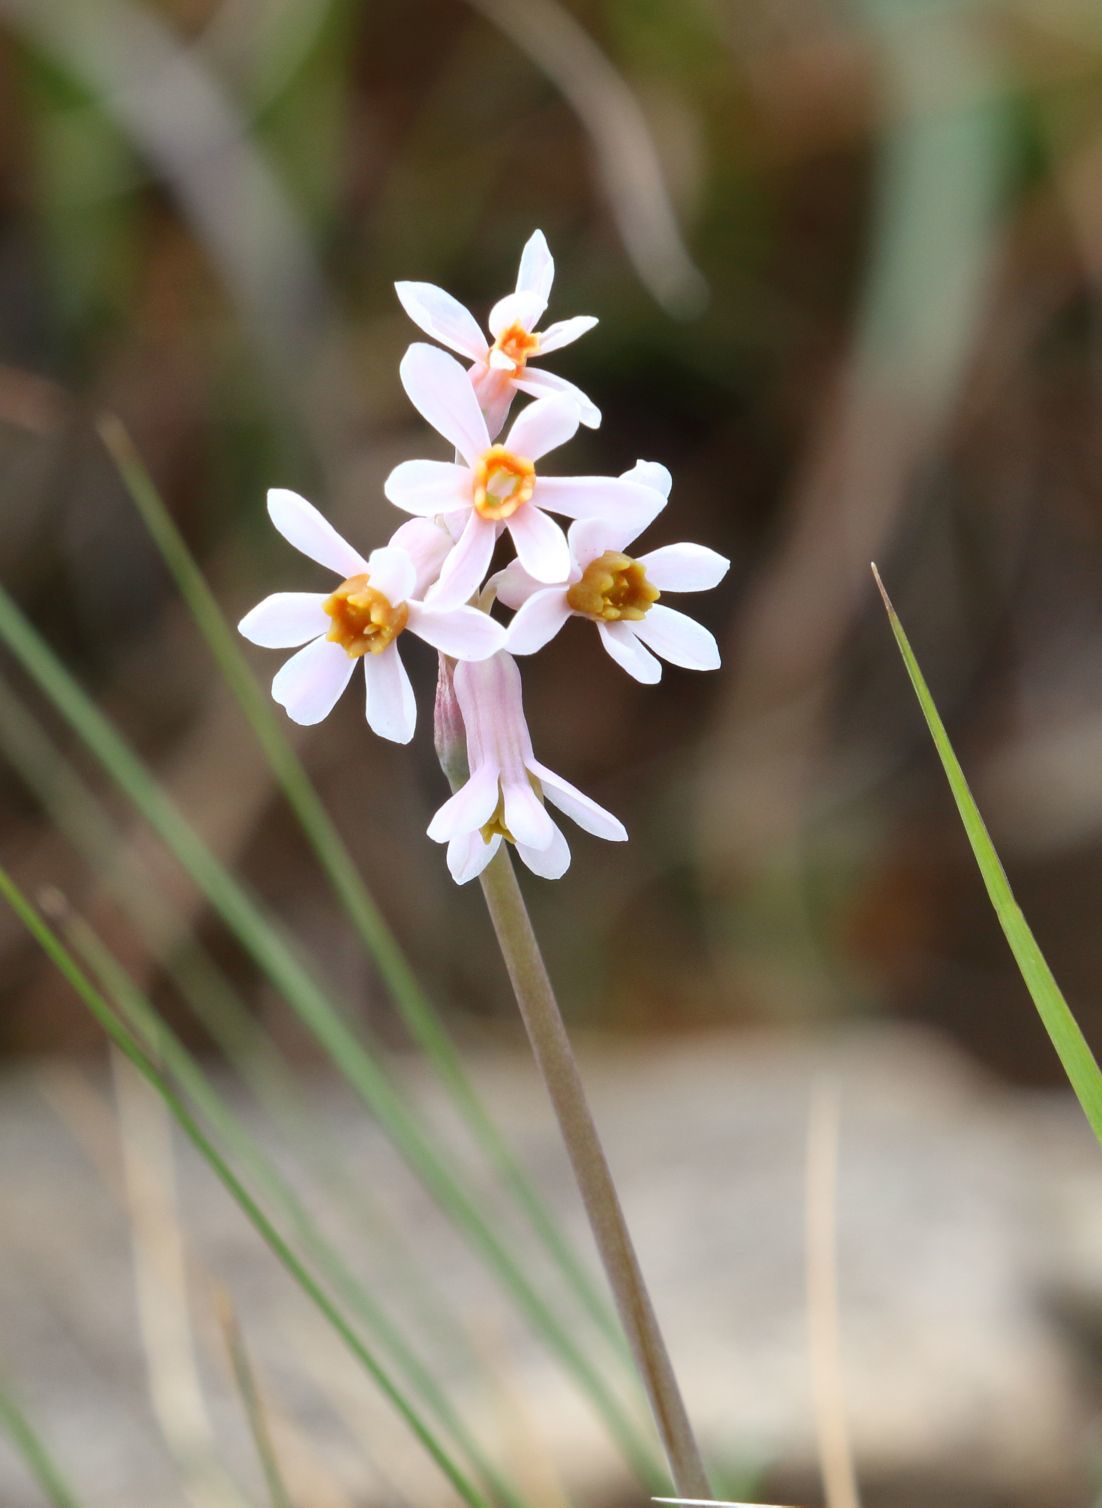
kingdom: Plantae
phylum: Tracheophyta
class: Liliopsida
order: Asparagales
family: Amaryllidaceae
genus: Tulbaghia
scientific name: Tulbaghia natalensis
